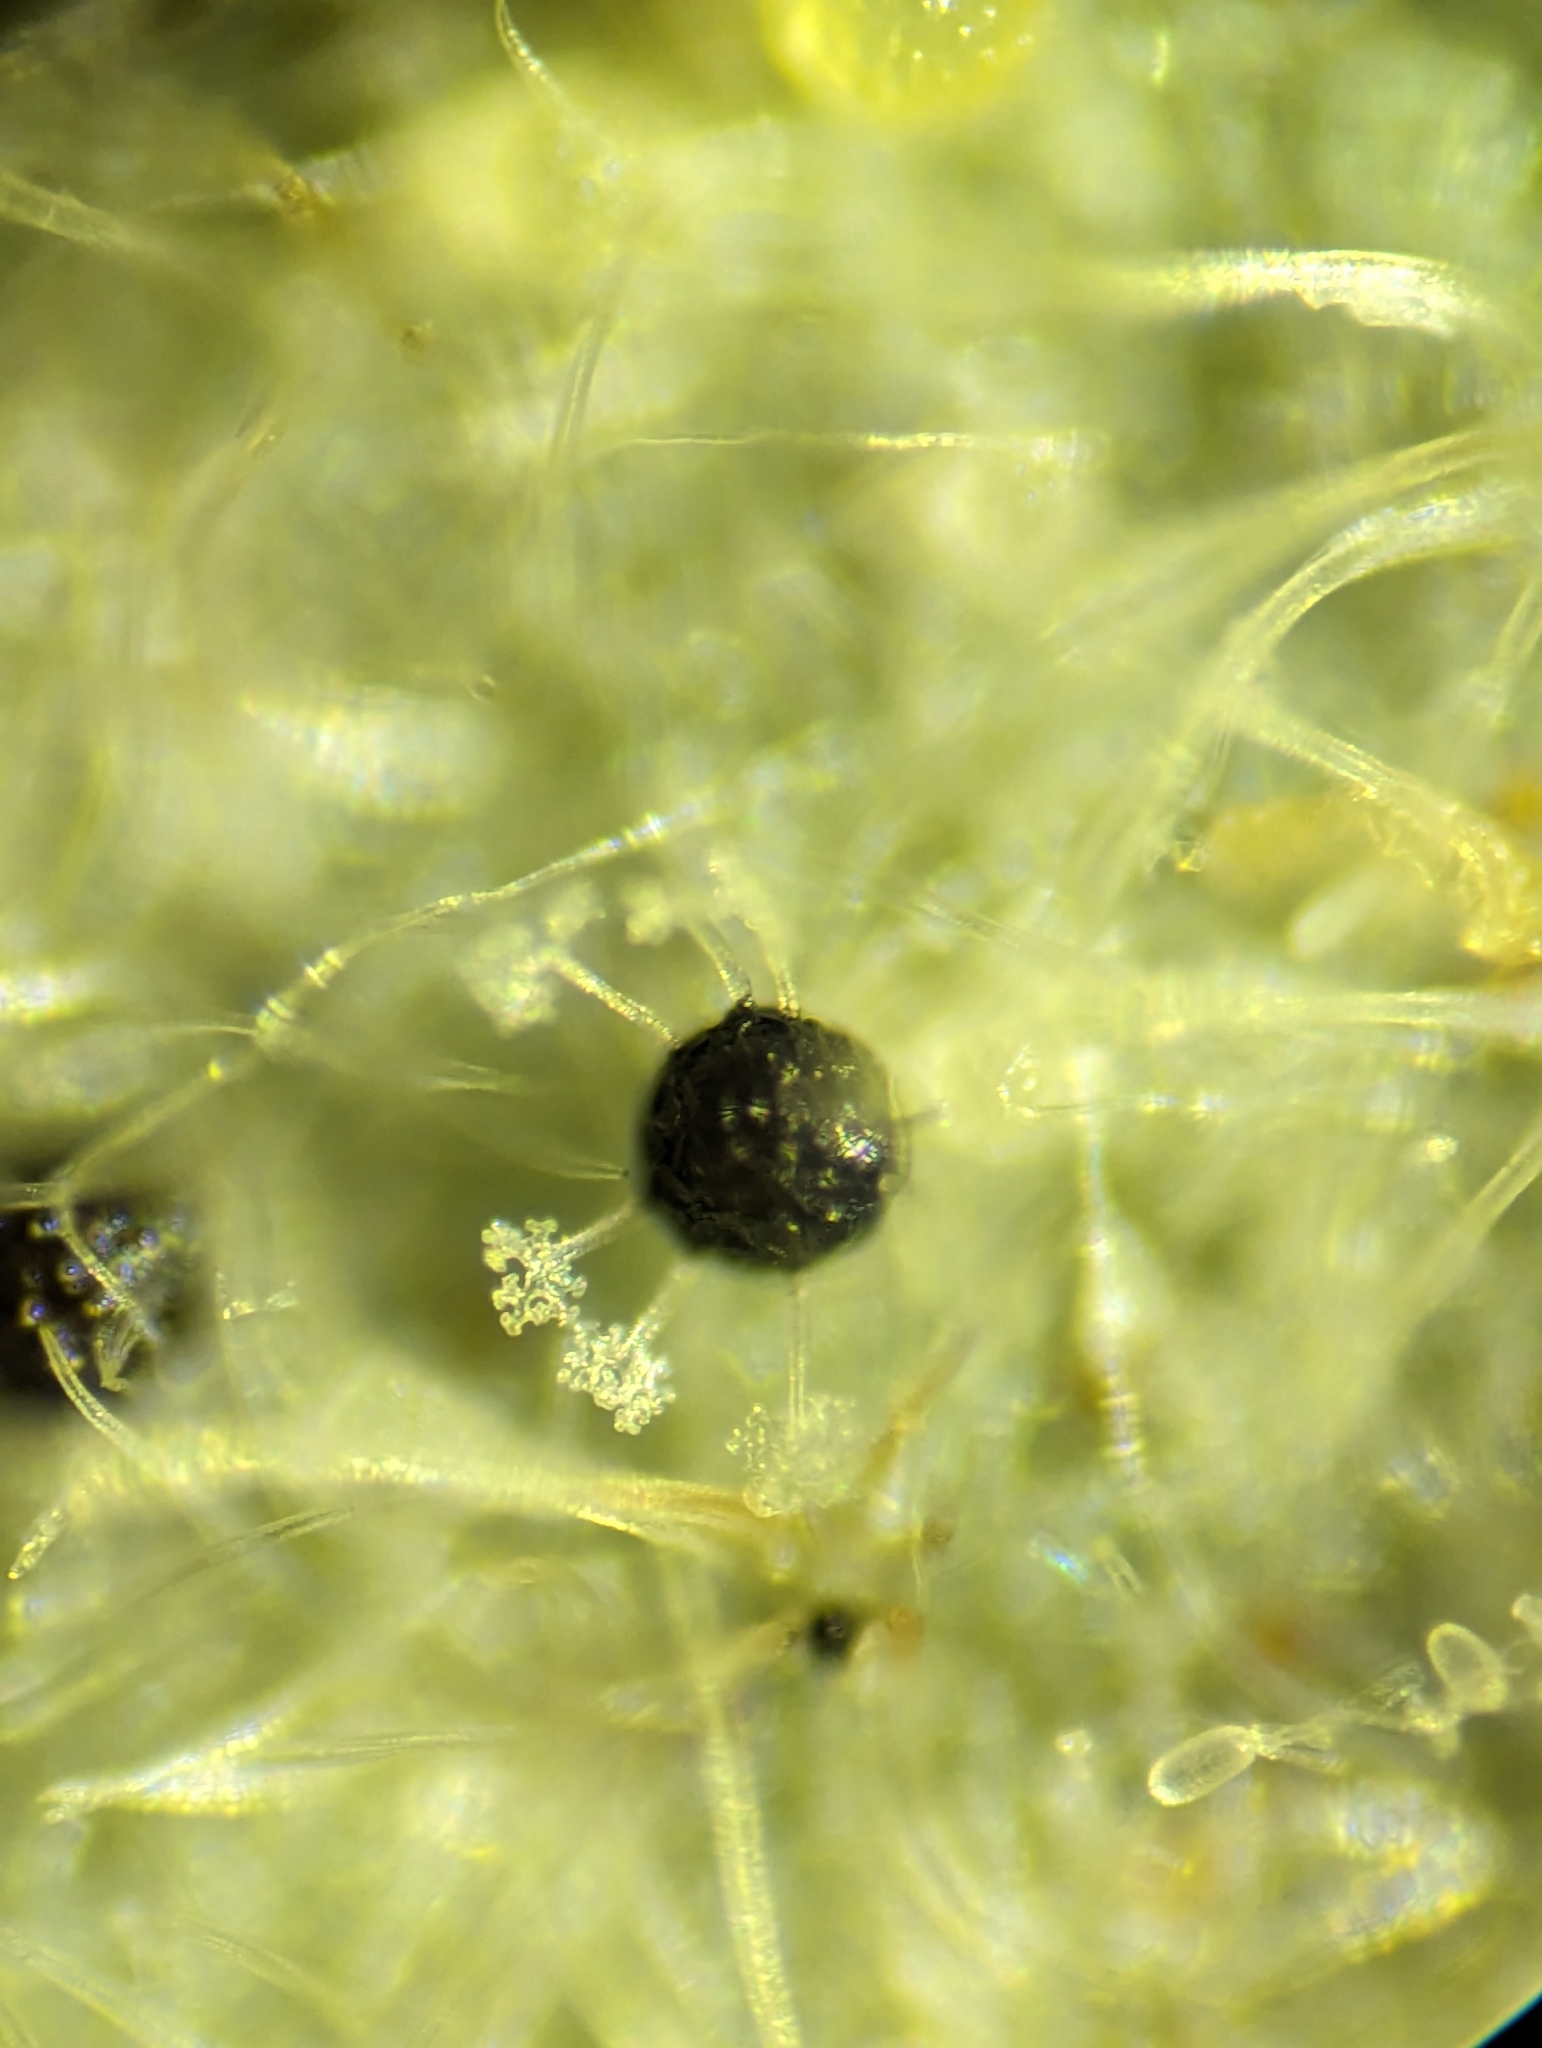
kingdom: Fungi
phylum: Ascomycota
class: Leotiomycetes
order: Helotiales
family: Erysiphaceae
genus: Erysiphe
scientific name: Erysiphe abbreviata
